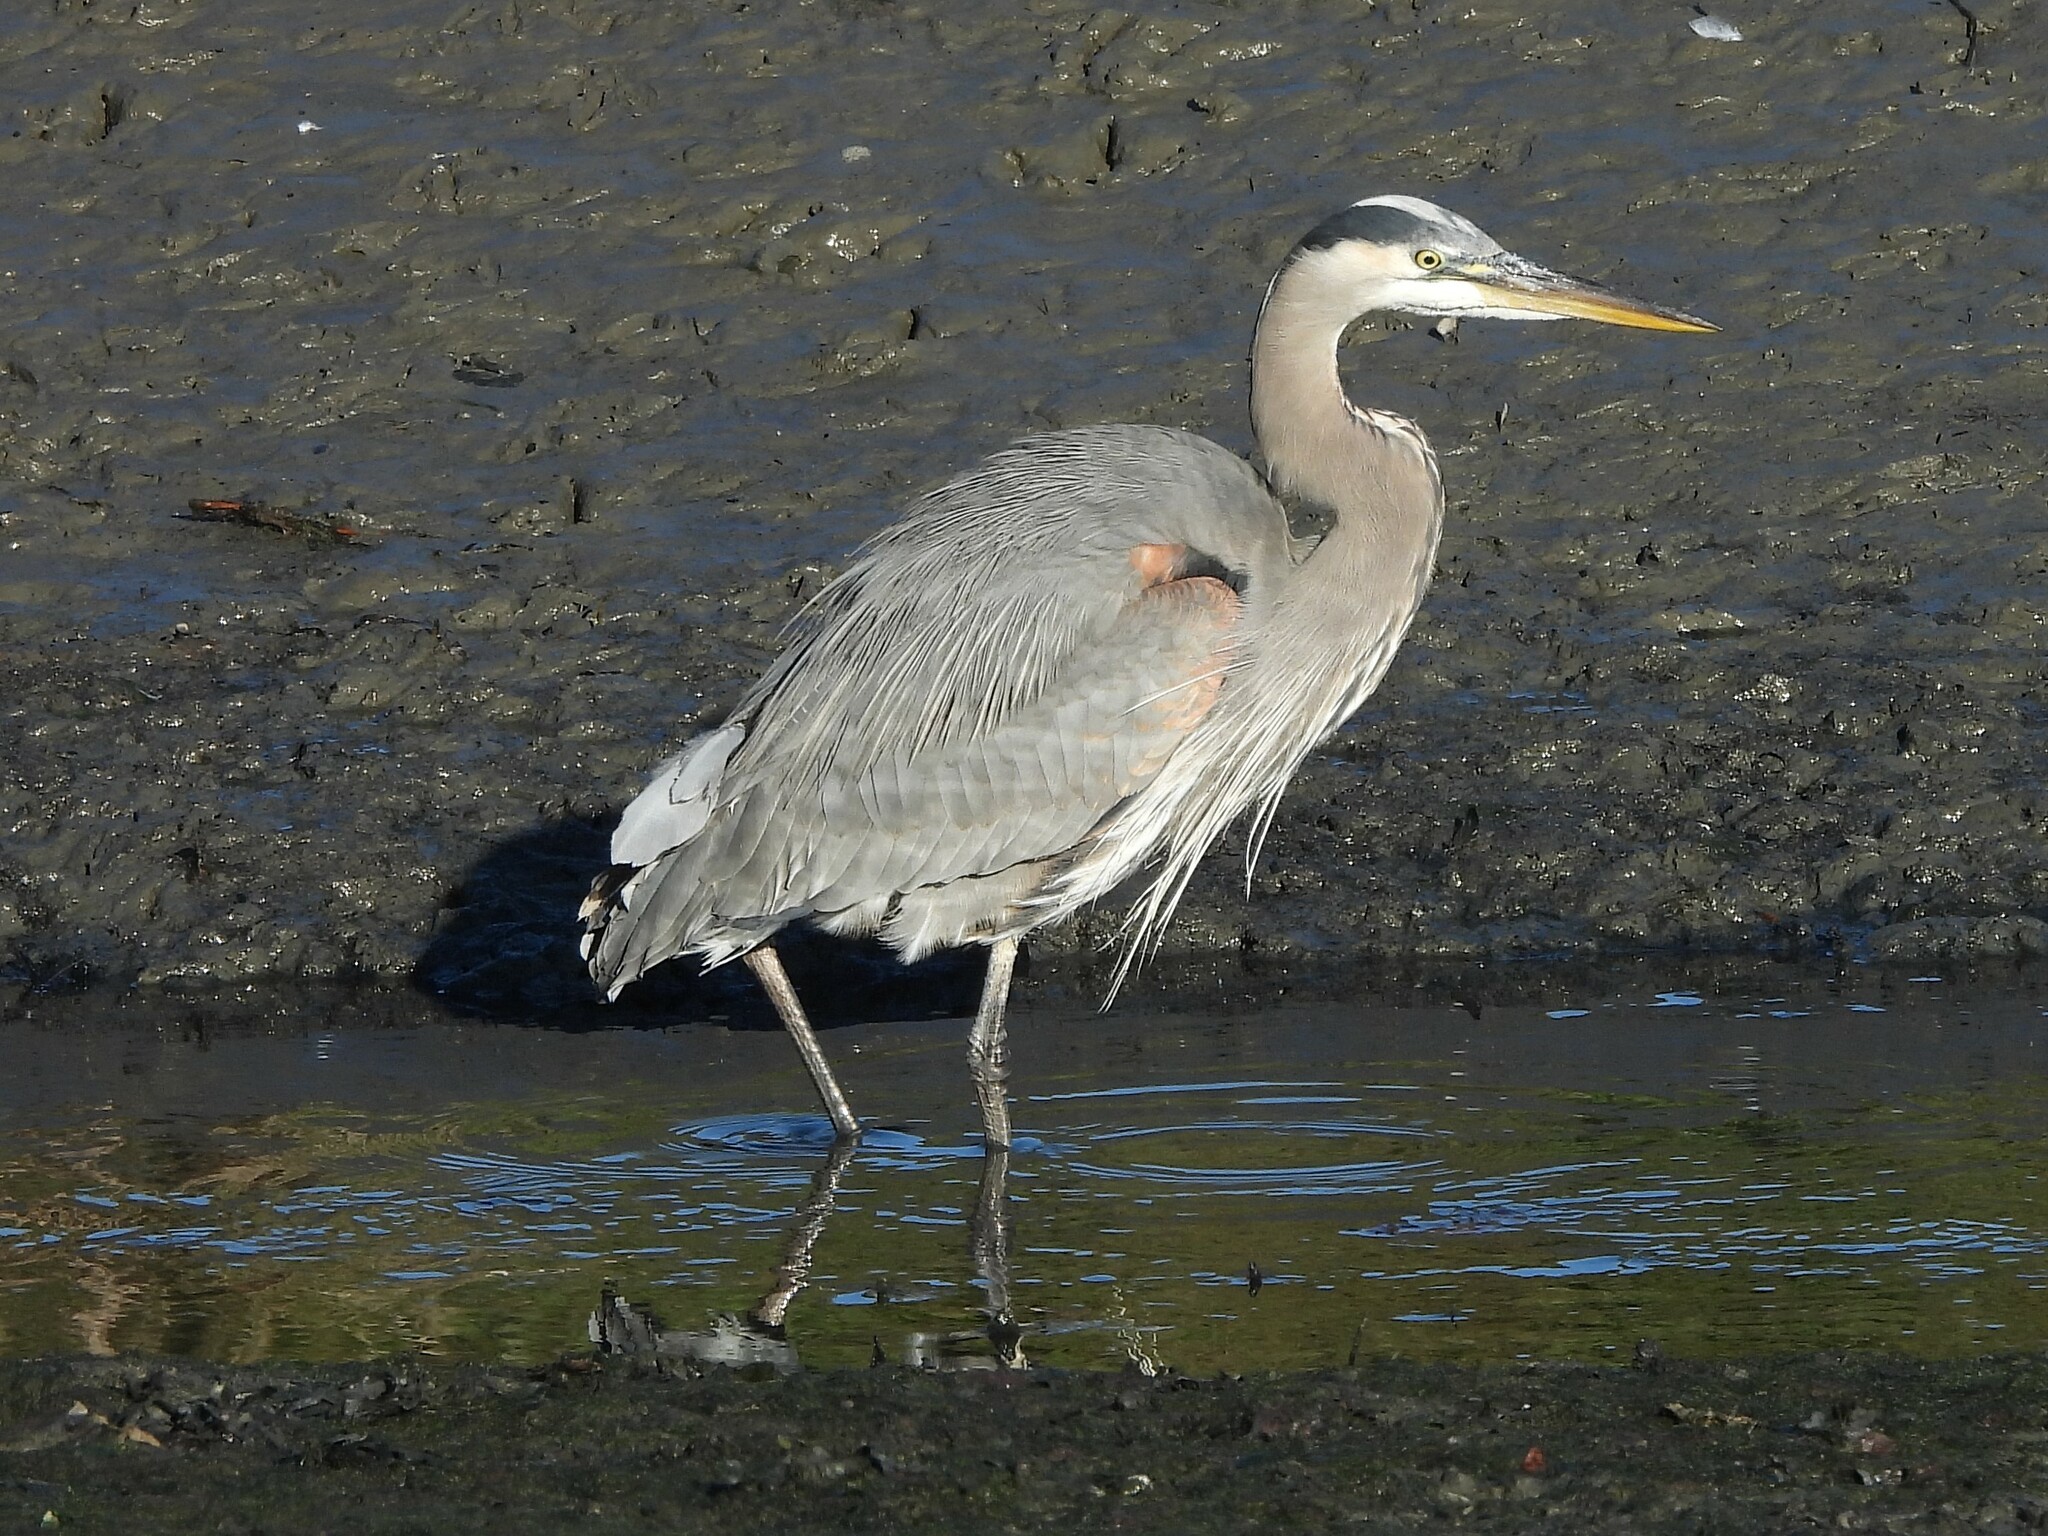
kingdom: Animalia
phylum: Chordata
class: Aves
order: Pelecaniformes
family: Ardeidae
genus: Ardea
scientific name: Ardea herodias
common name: Great blue heron
